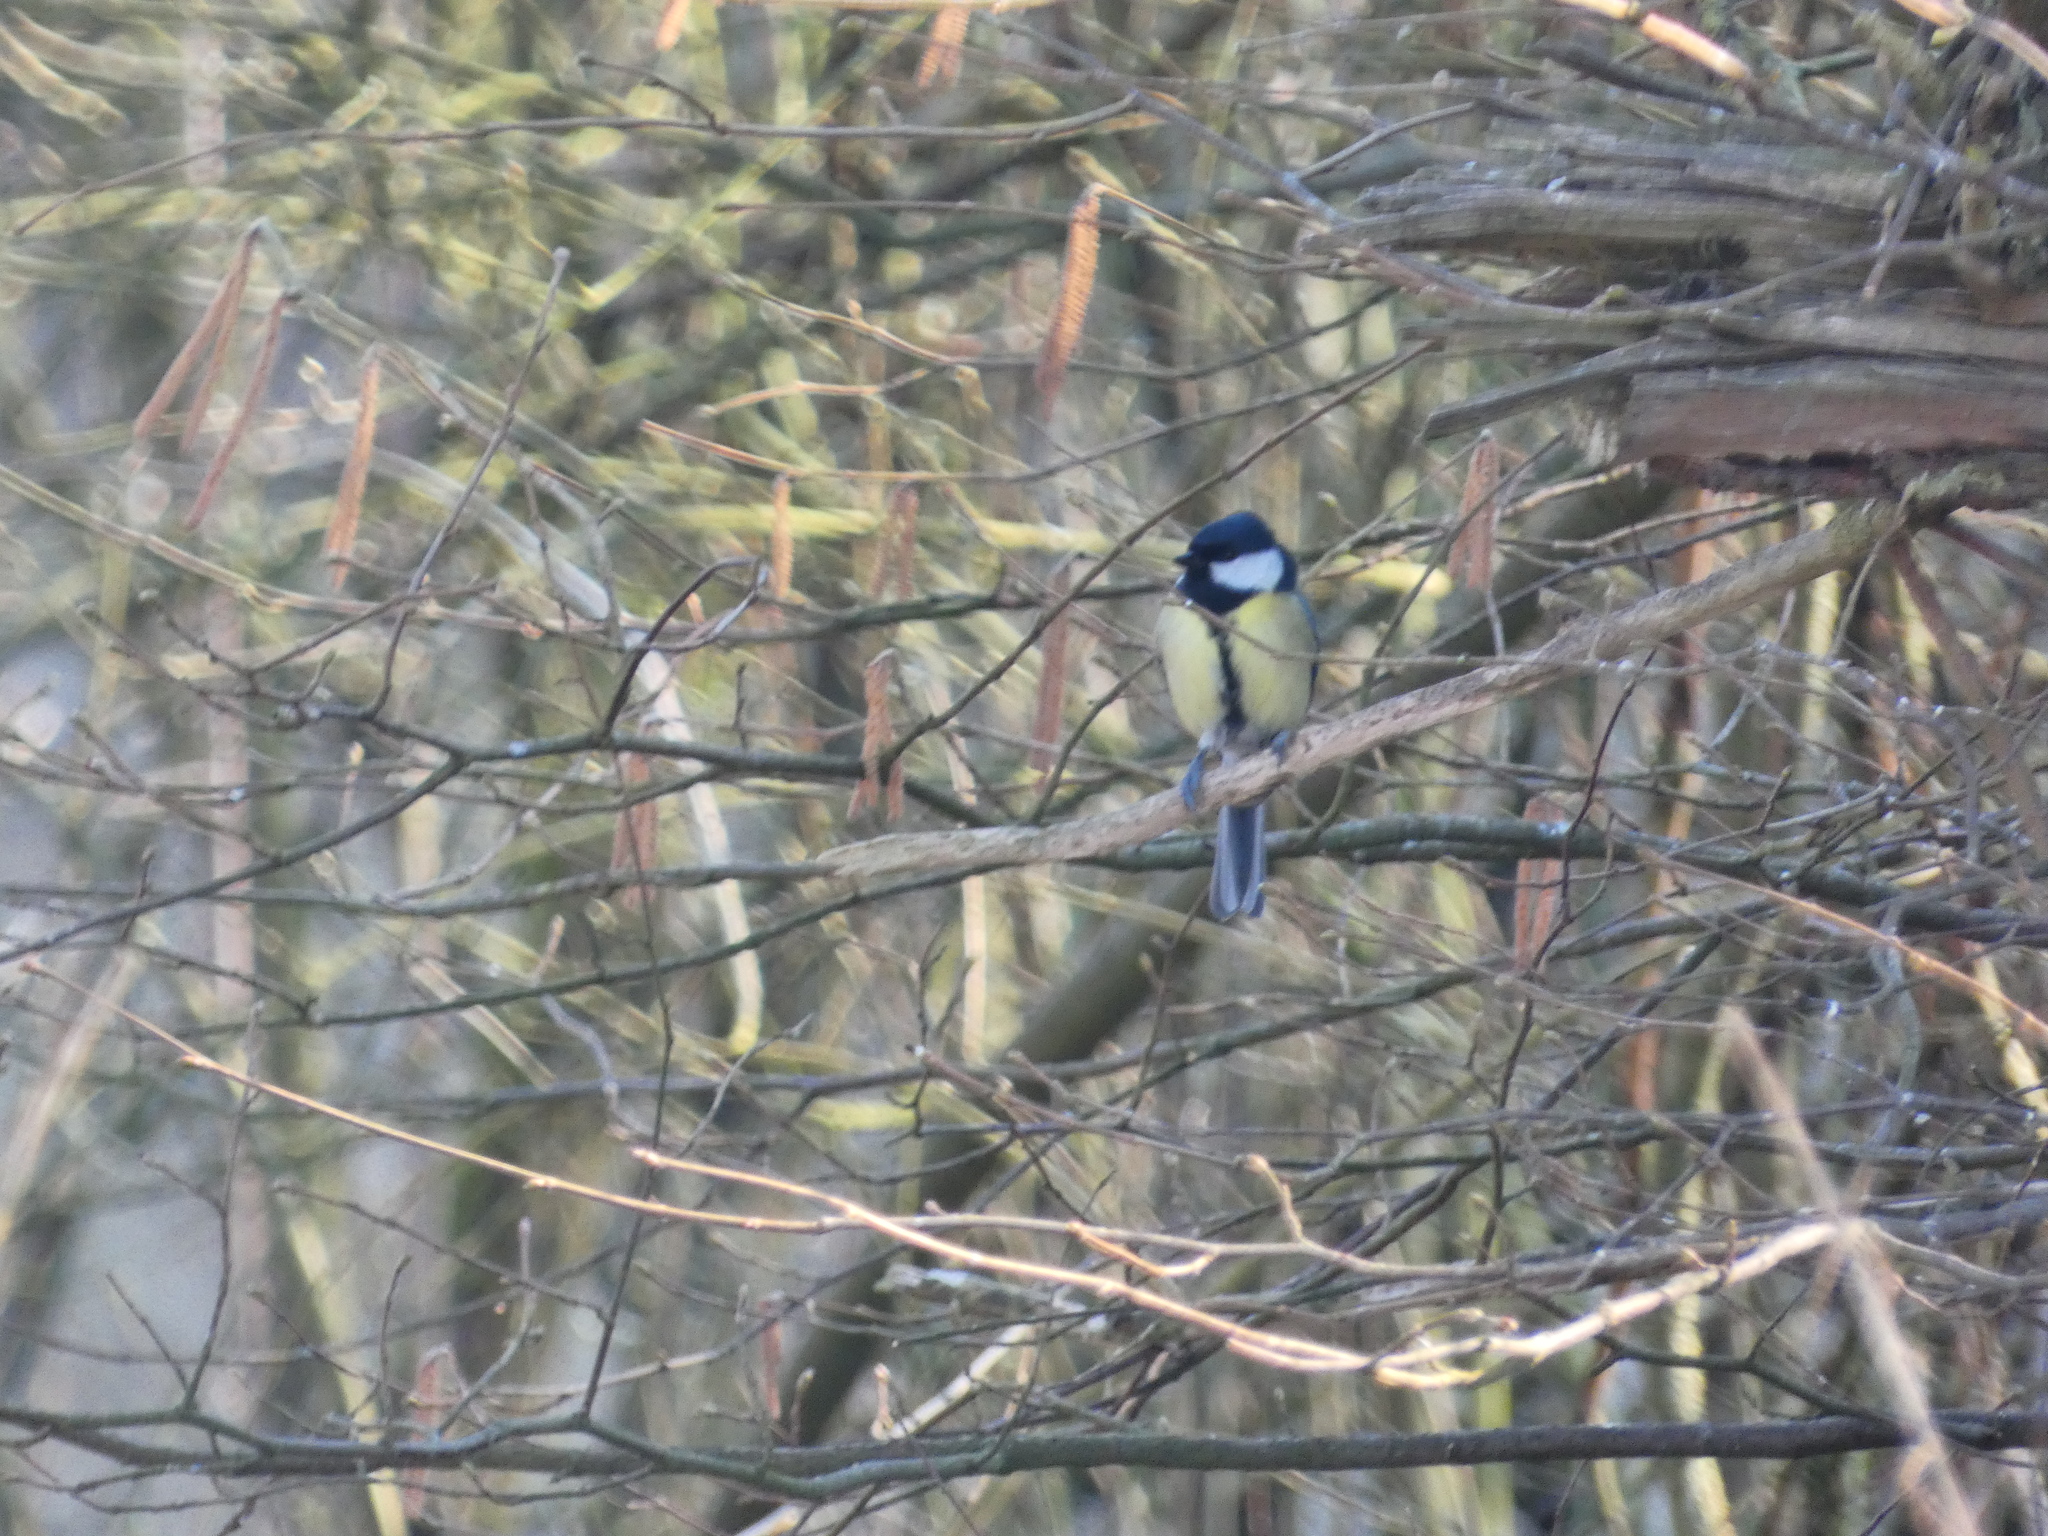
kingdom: Animalia
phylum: Chordata
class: Aves
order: Passeriformes
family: Paridae
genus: Parus
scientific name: Parus major
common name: Great tit
